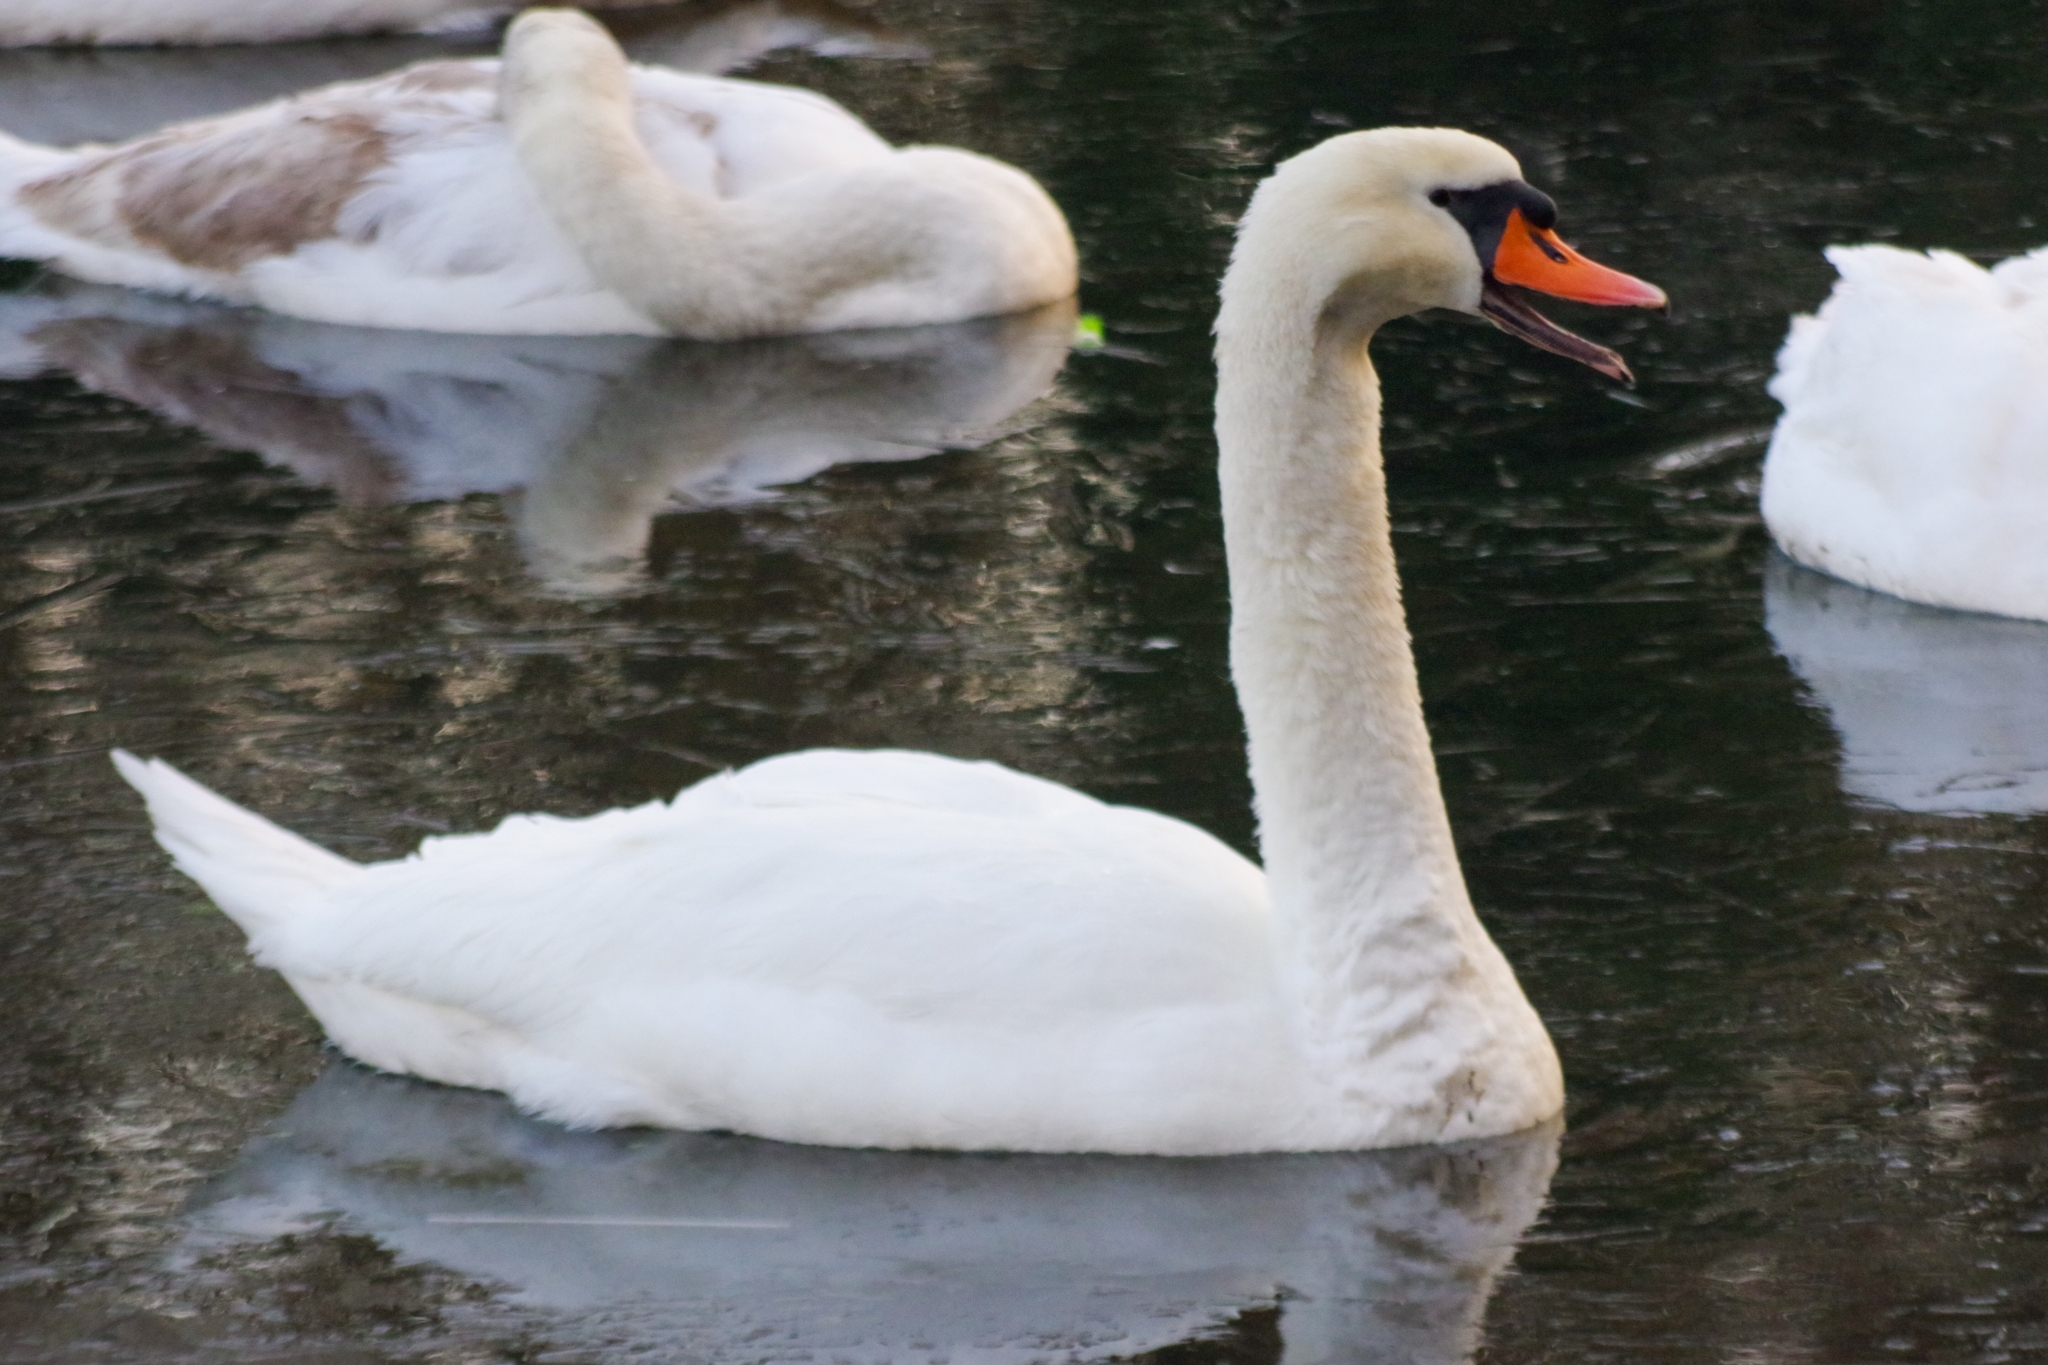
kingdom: Animalia
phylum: Chordata
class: Aves
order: Anseriformes
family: Anatidae
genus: Cygnus
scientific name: Cygnus olor
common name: Mute swan
